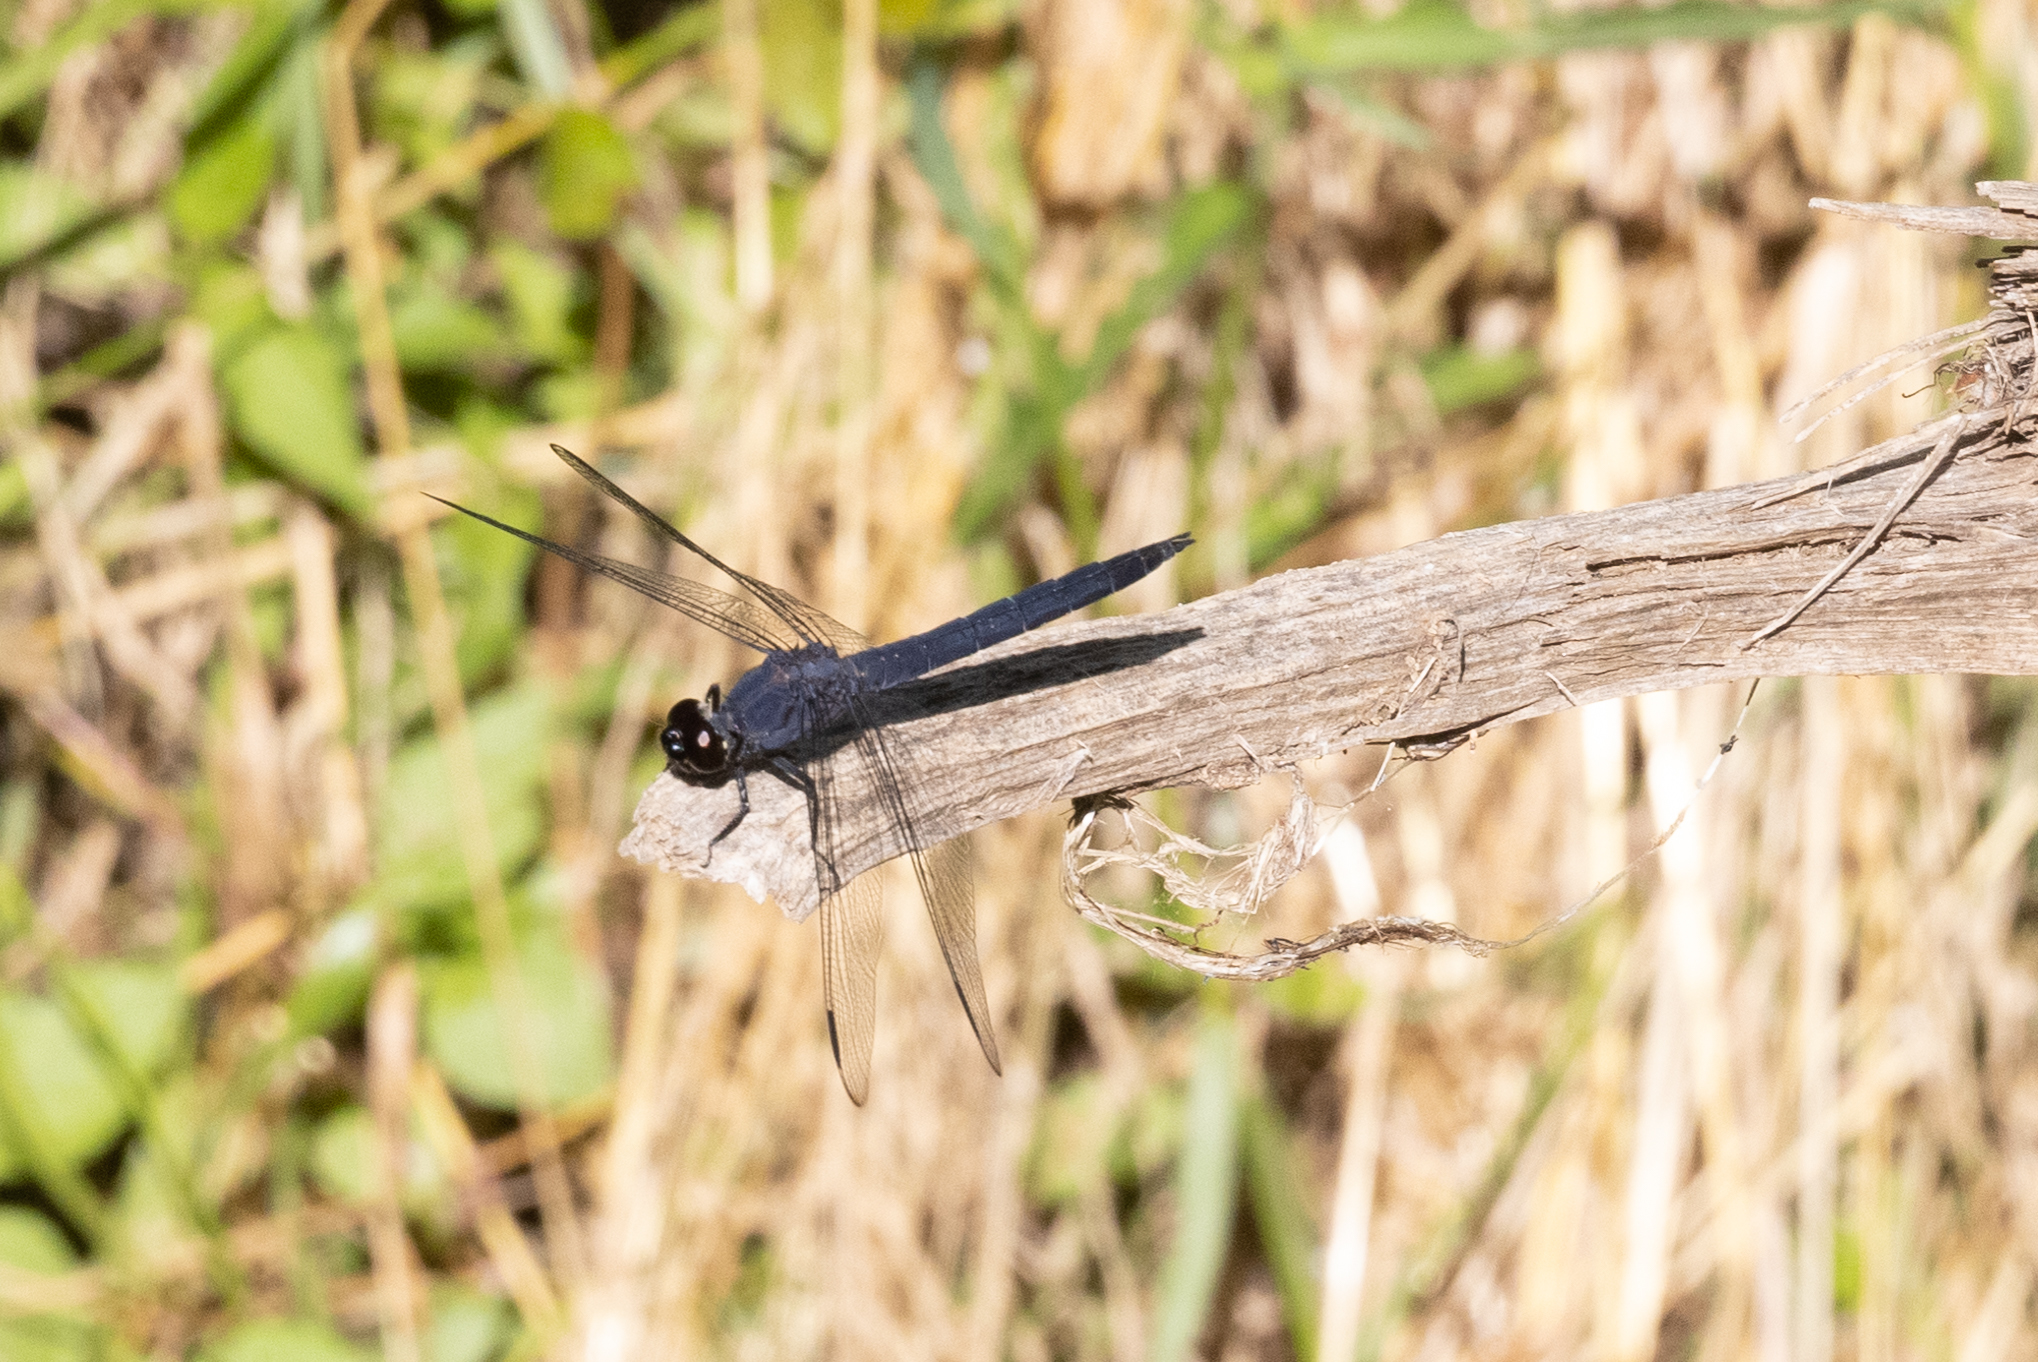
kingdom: Animalia
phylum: Arthropoda
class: Insecta
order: Odonata
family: Libellulidae
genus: Libellula
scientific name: Libellula incesta
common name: Slaty skimmer
